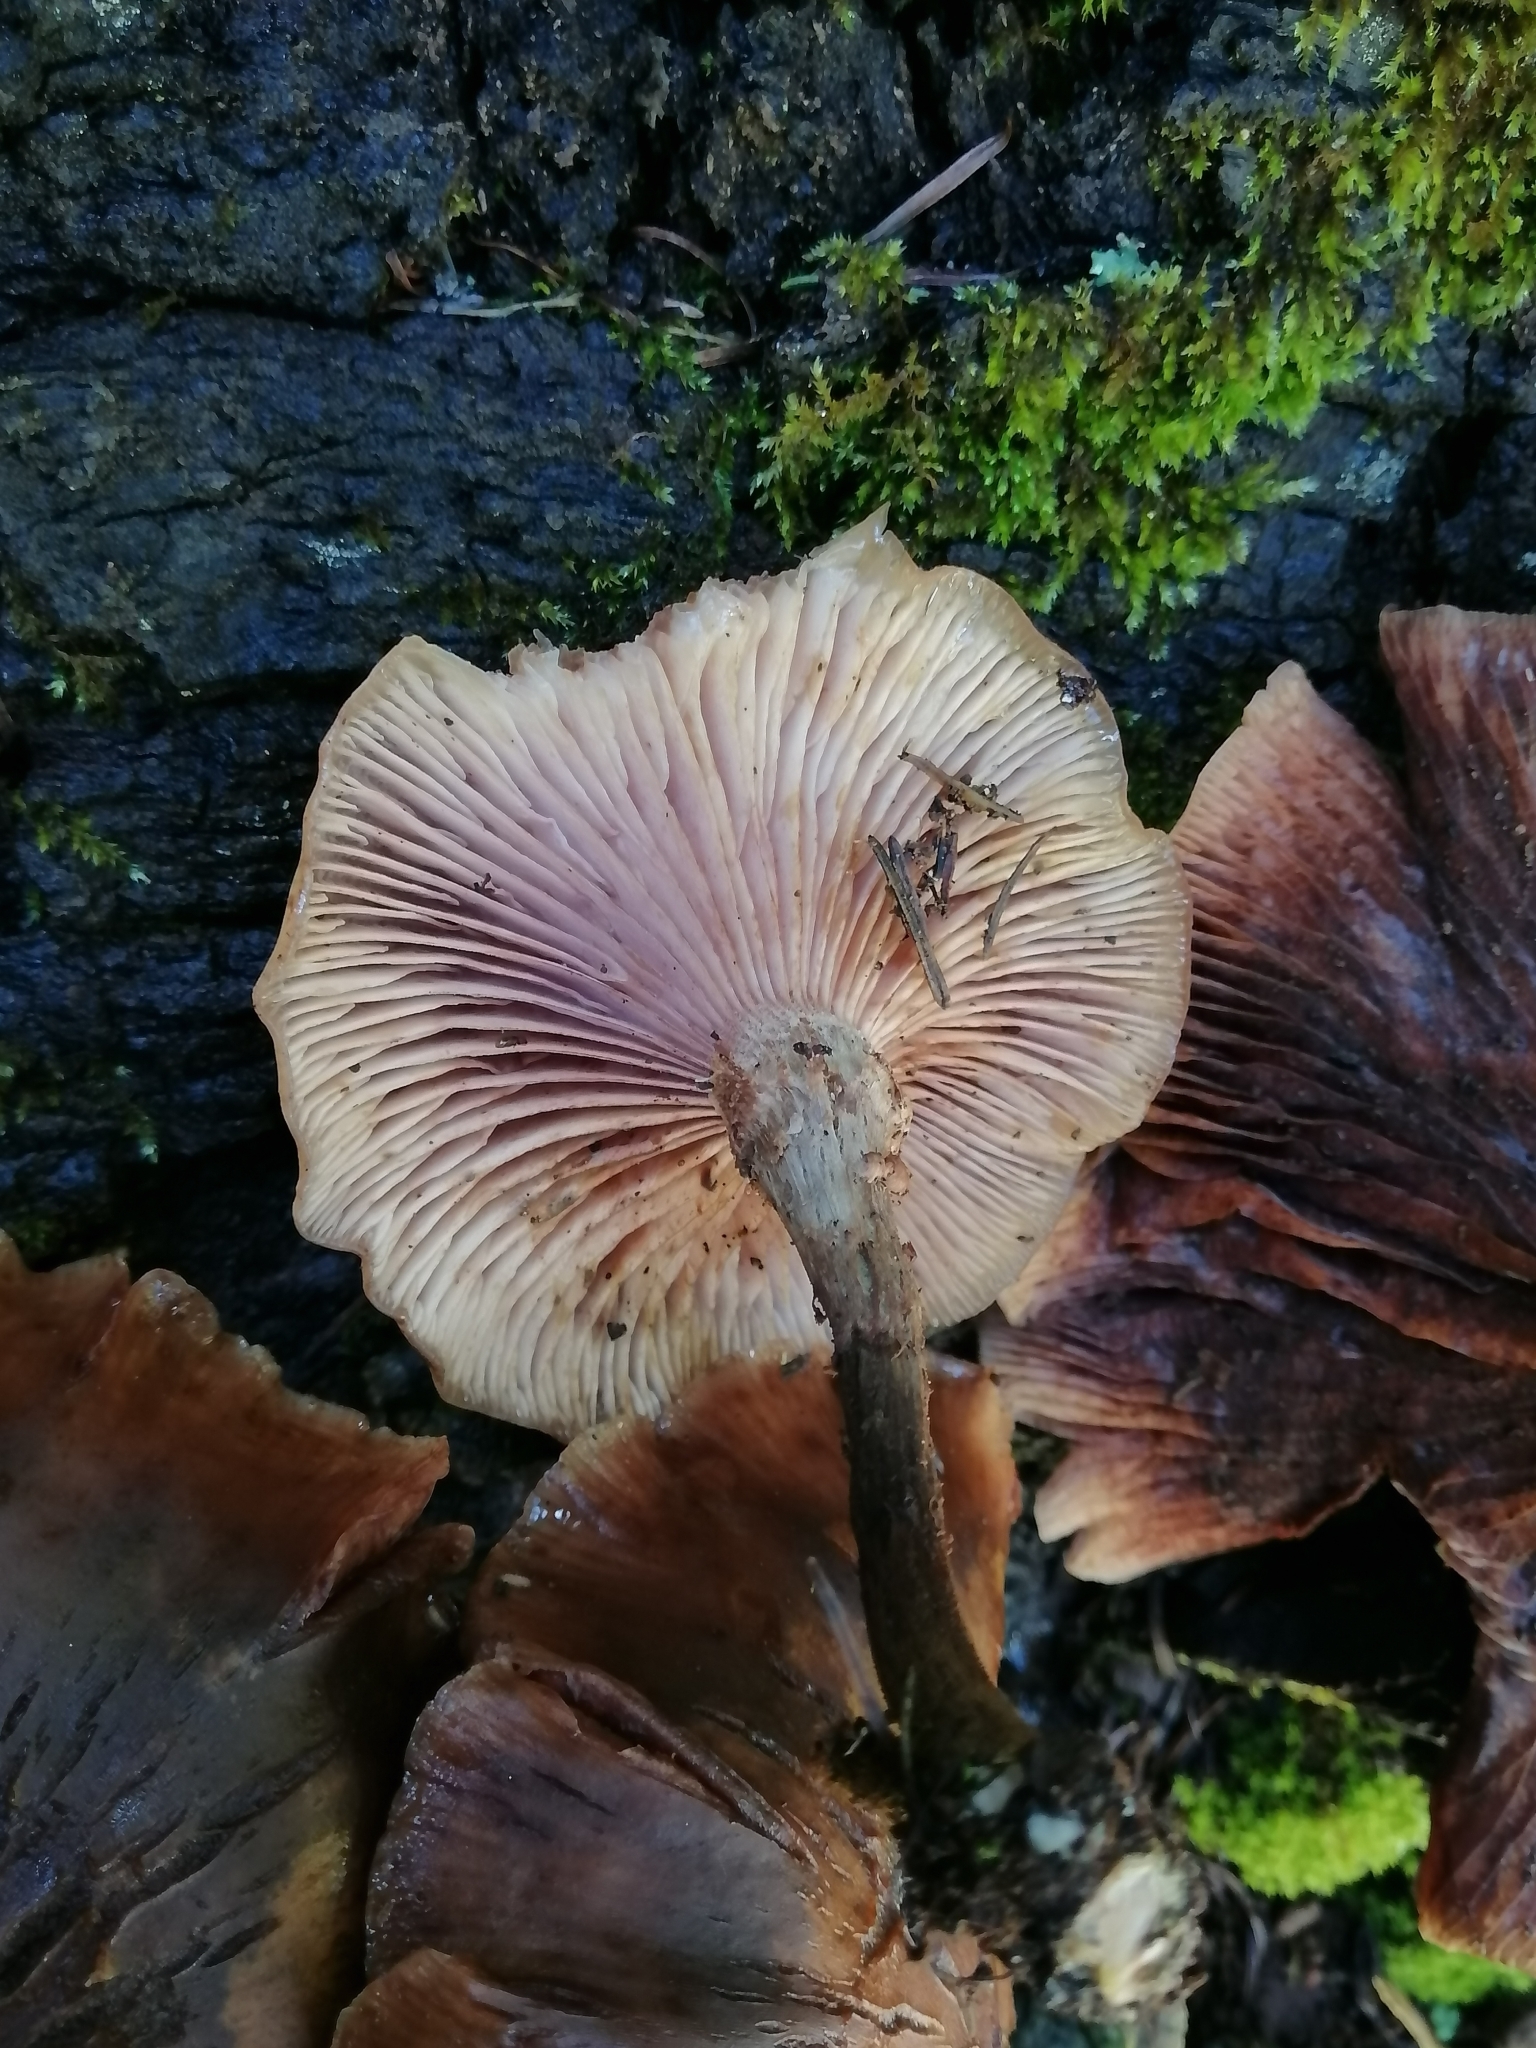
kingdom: Fungi
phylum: Basidiomycota
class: Agaricomycetes
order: Agaricales
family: Physalacriaceae
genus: Armillaria
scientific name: Armillaria mexicana
